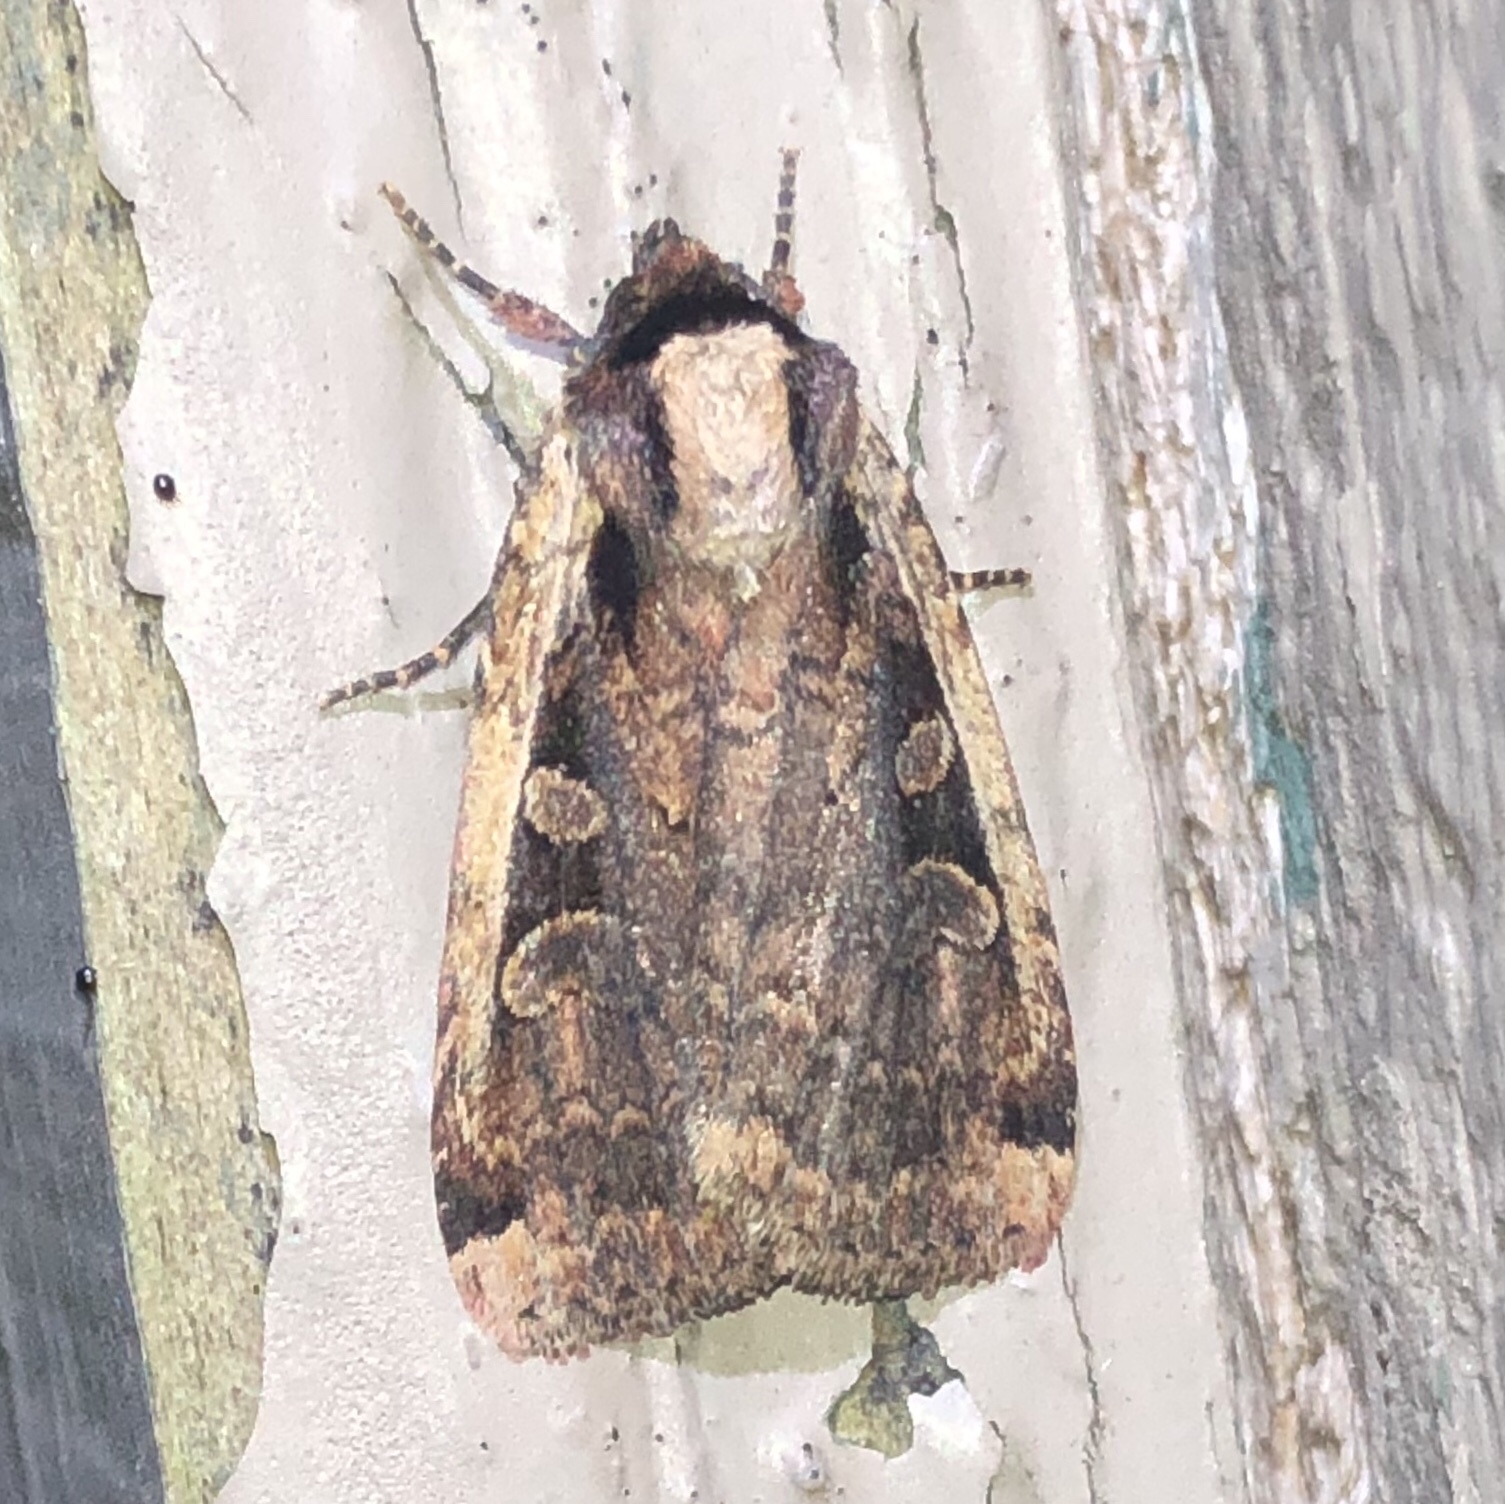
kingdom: Animalia
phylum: Arthropoda
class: Insecta
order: Lepidoptera
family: Noctuidae
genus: Eueretagrotis
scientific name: Eueretagrotis sigmoides
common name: Sigmoid dart
